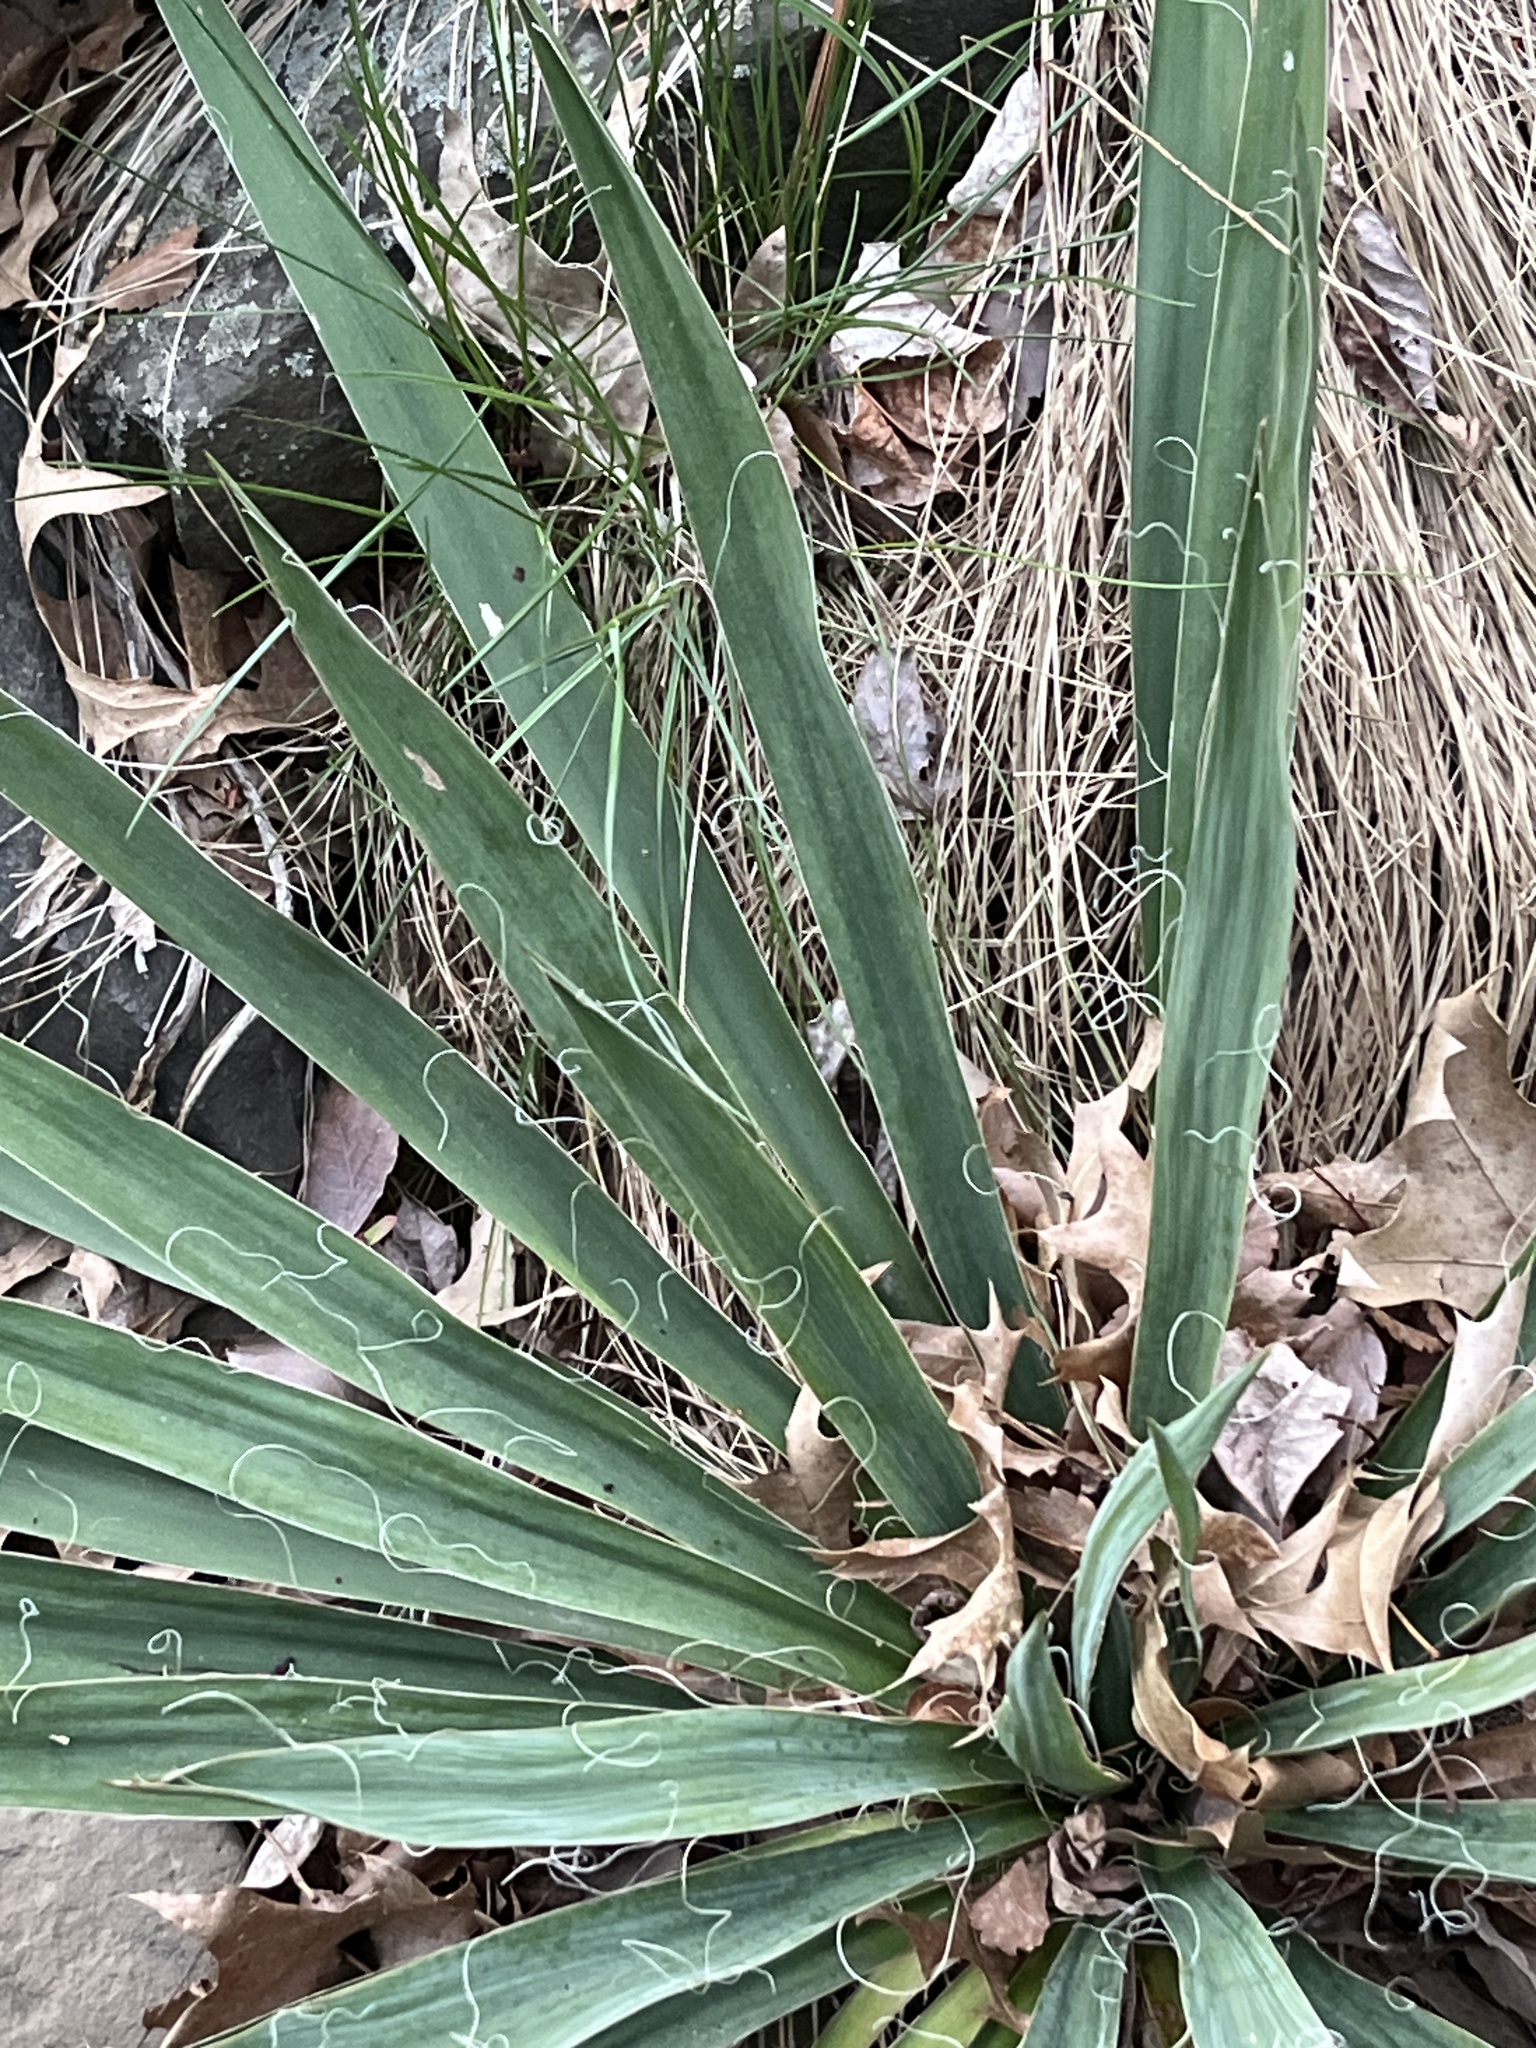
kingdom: Plantae
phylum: Tracheophyta
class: Liliopsida
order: Asparagales
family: Asparagaceae
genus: Yucca
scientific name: Yucca filamentosa
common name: Adam's-needle
